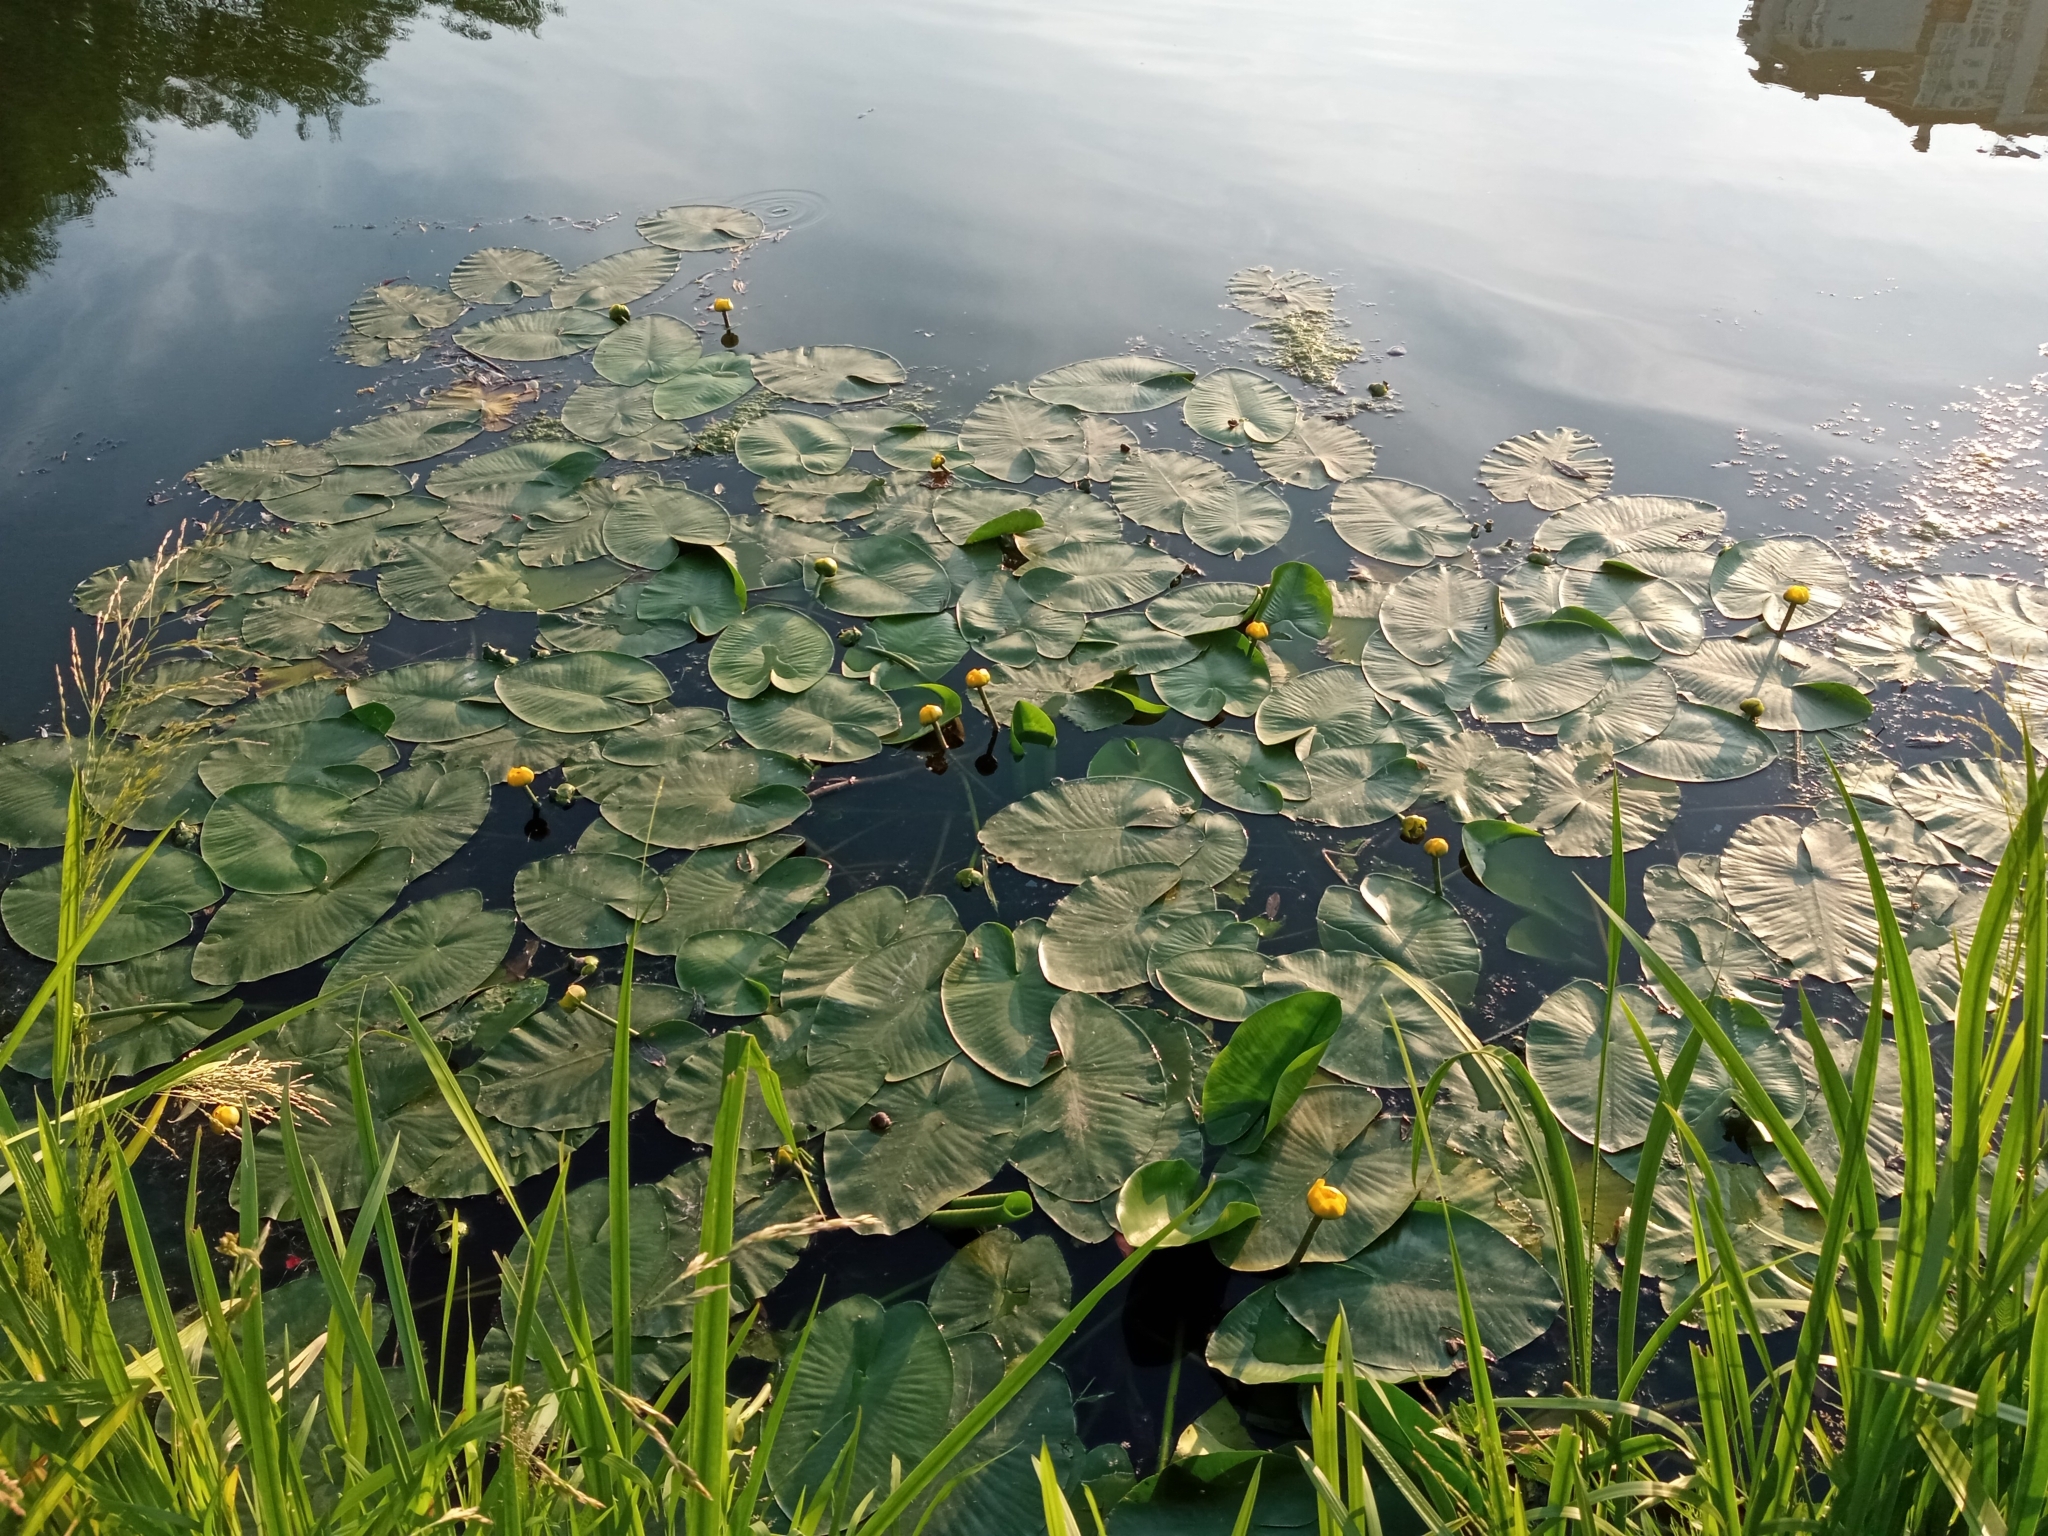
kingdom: Plantae
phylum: Tracheophyta
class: Magnoliopsida
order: Nymphaeales
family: Nymphaeaceae
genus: Nuphar
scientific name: Nuphar lutea
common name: Yellow water-lily
